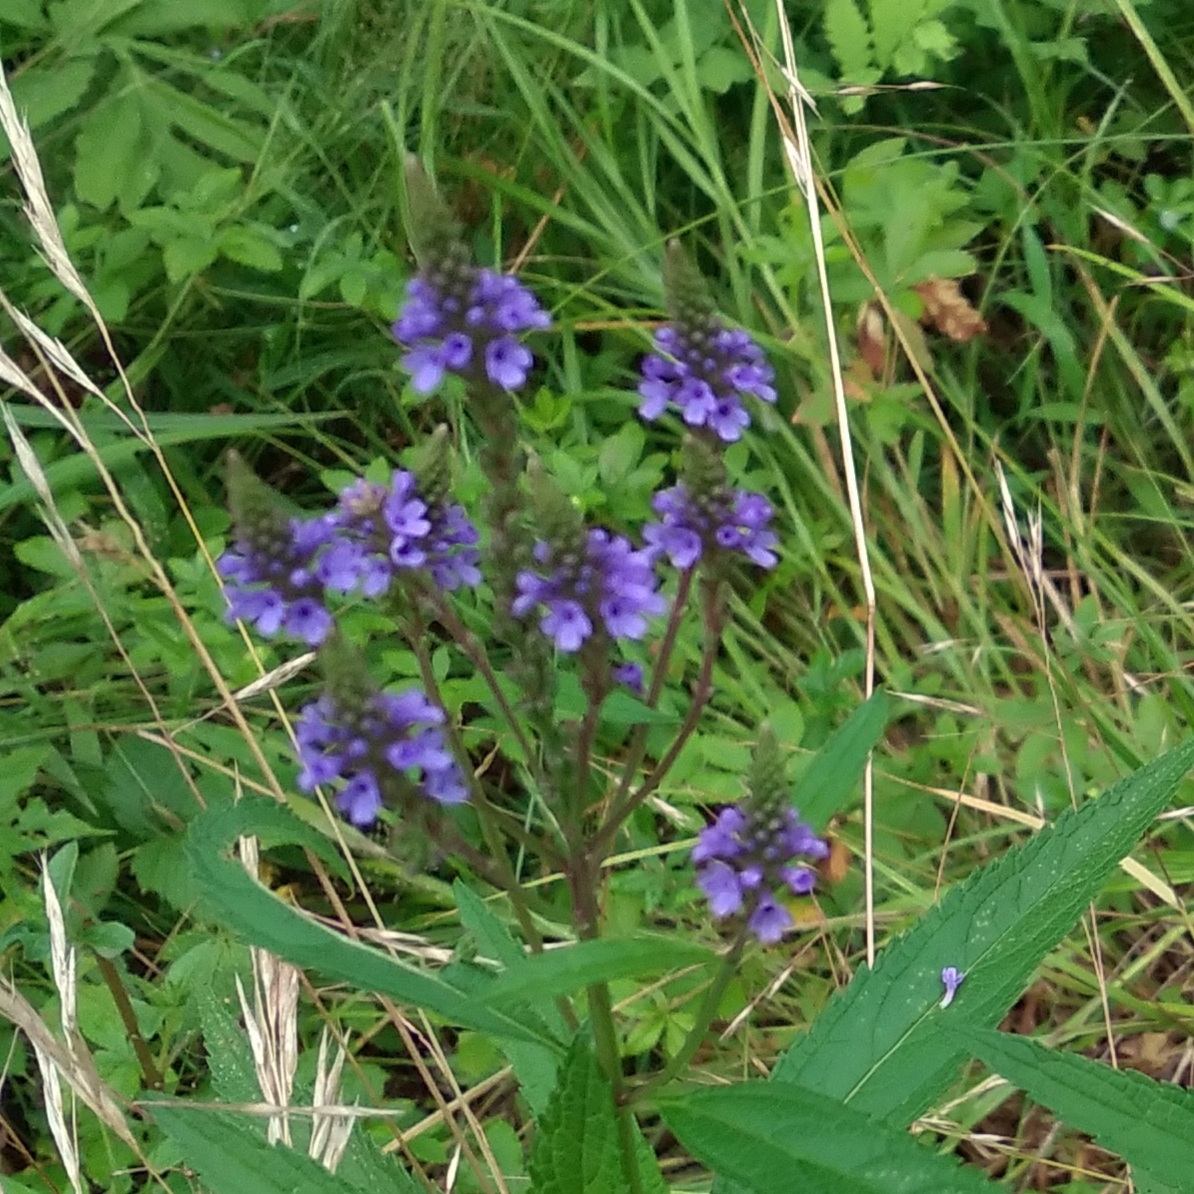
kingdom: Plantae
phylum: Tracheophyta
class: Magnoliopsida
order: Lamiales
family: Verbenaceae
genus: Verbena
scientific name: Verbena hastata
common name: American blue vervain
